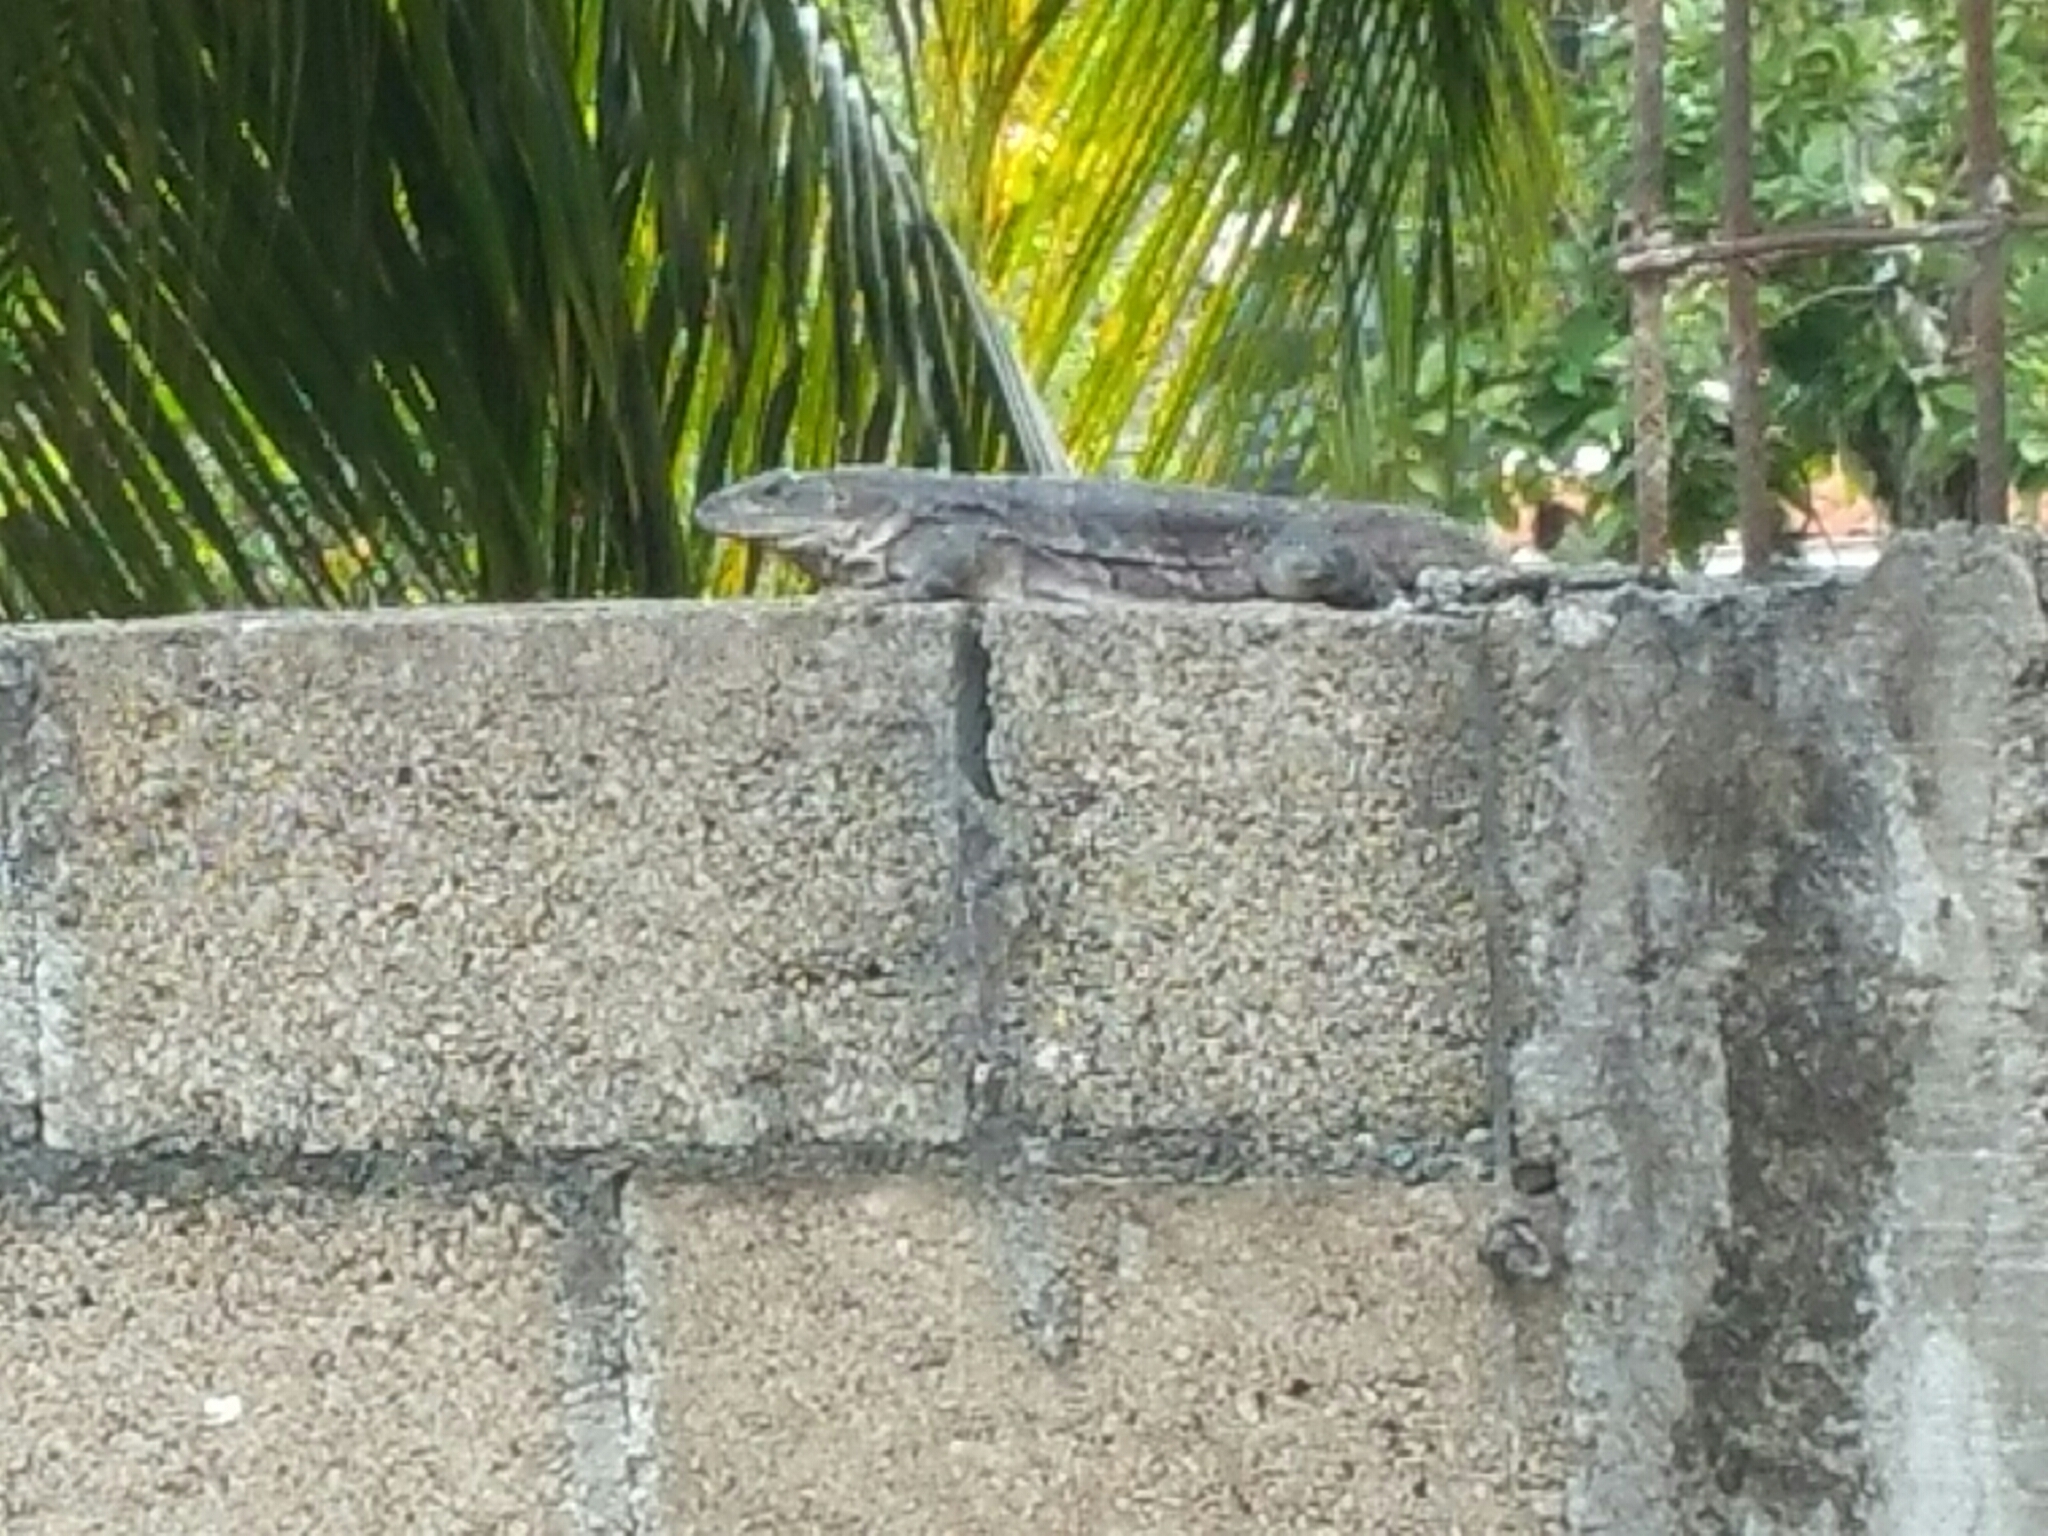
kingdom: Animalia
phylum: Chordata
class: Squamata
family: Iguanidae
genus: Ctenosaura
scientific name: Ctenosaura similis
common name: Black spiny-tailed iguana
